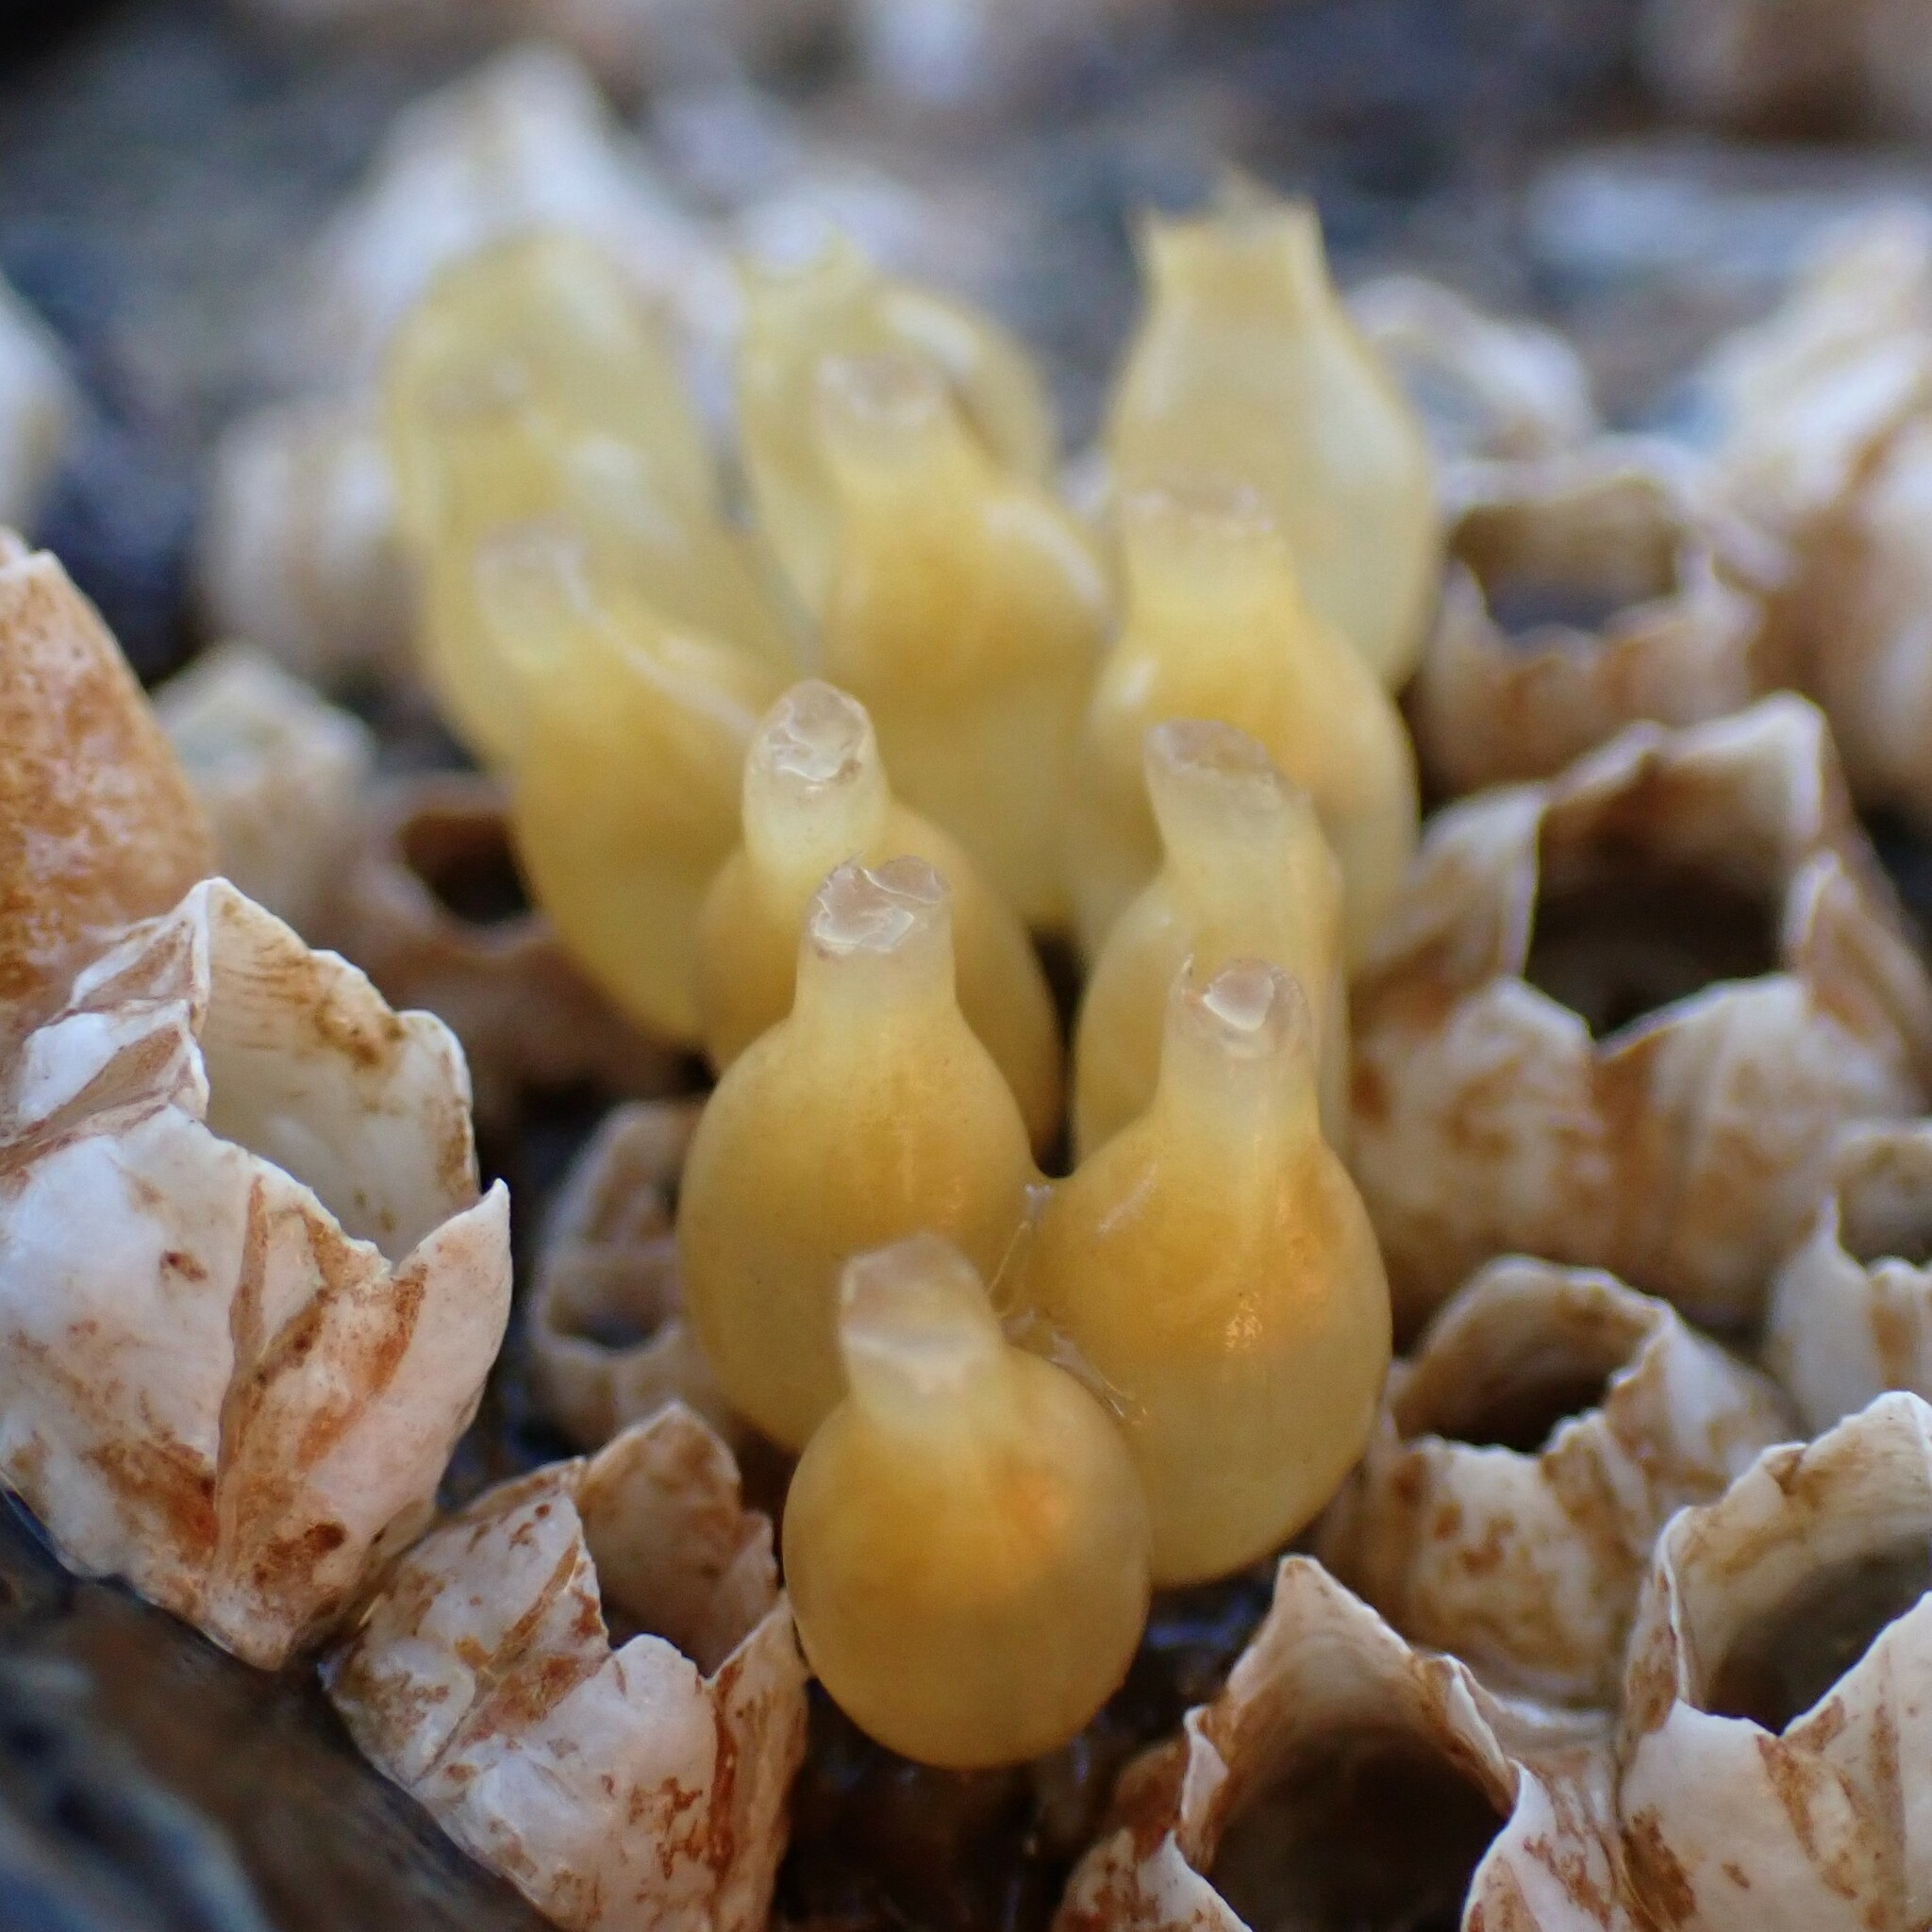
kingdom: Animalia
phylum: Mollusca
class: Gastropoda
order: Neogastropoda
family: Muricidae
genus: Nucella
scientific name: Nucella ostrina
